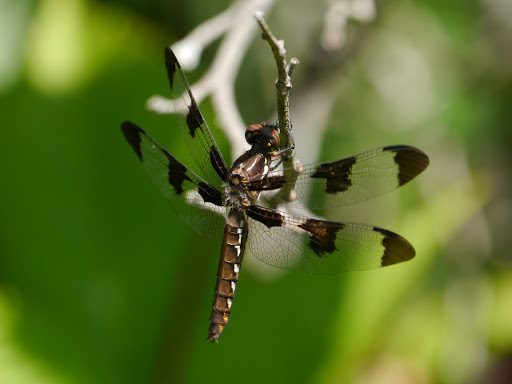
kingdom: Animalia
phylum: Arthropoda
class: Insecta
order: Odonata
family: Libellulidae
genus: Plathemis
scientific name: Plathemis lydia
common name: Common whitetail
